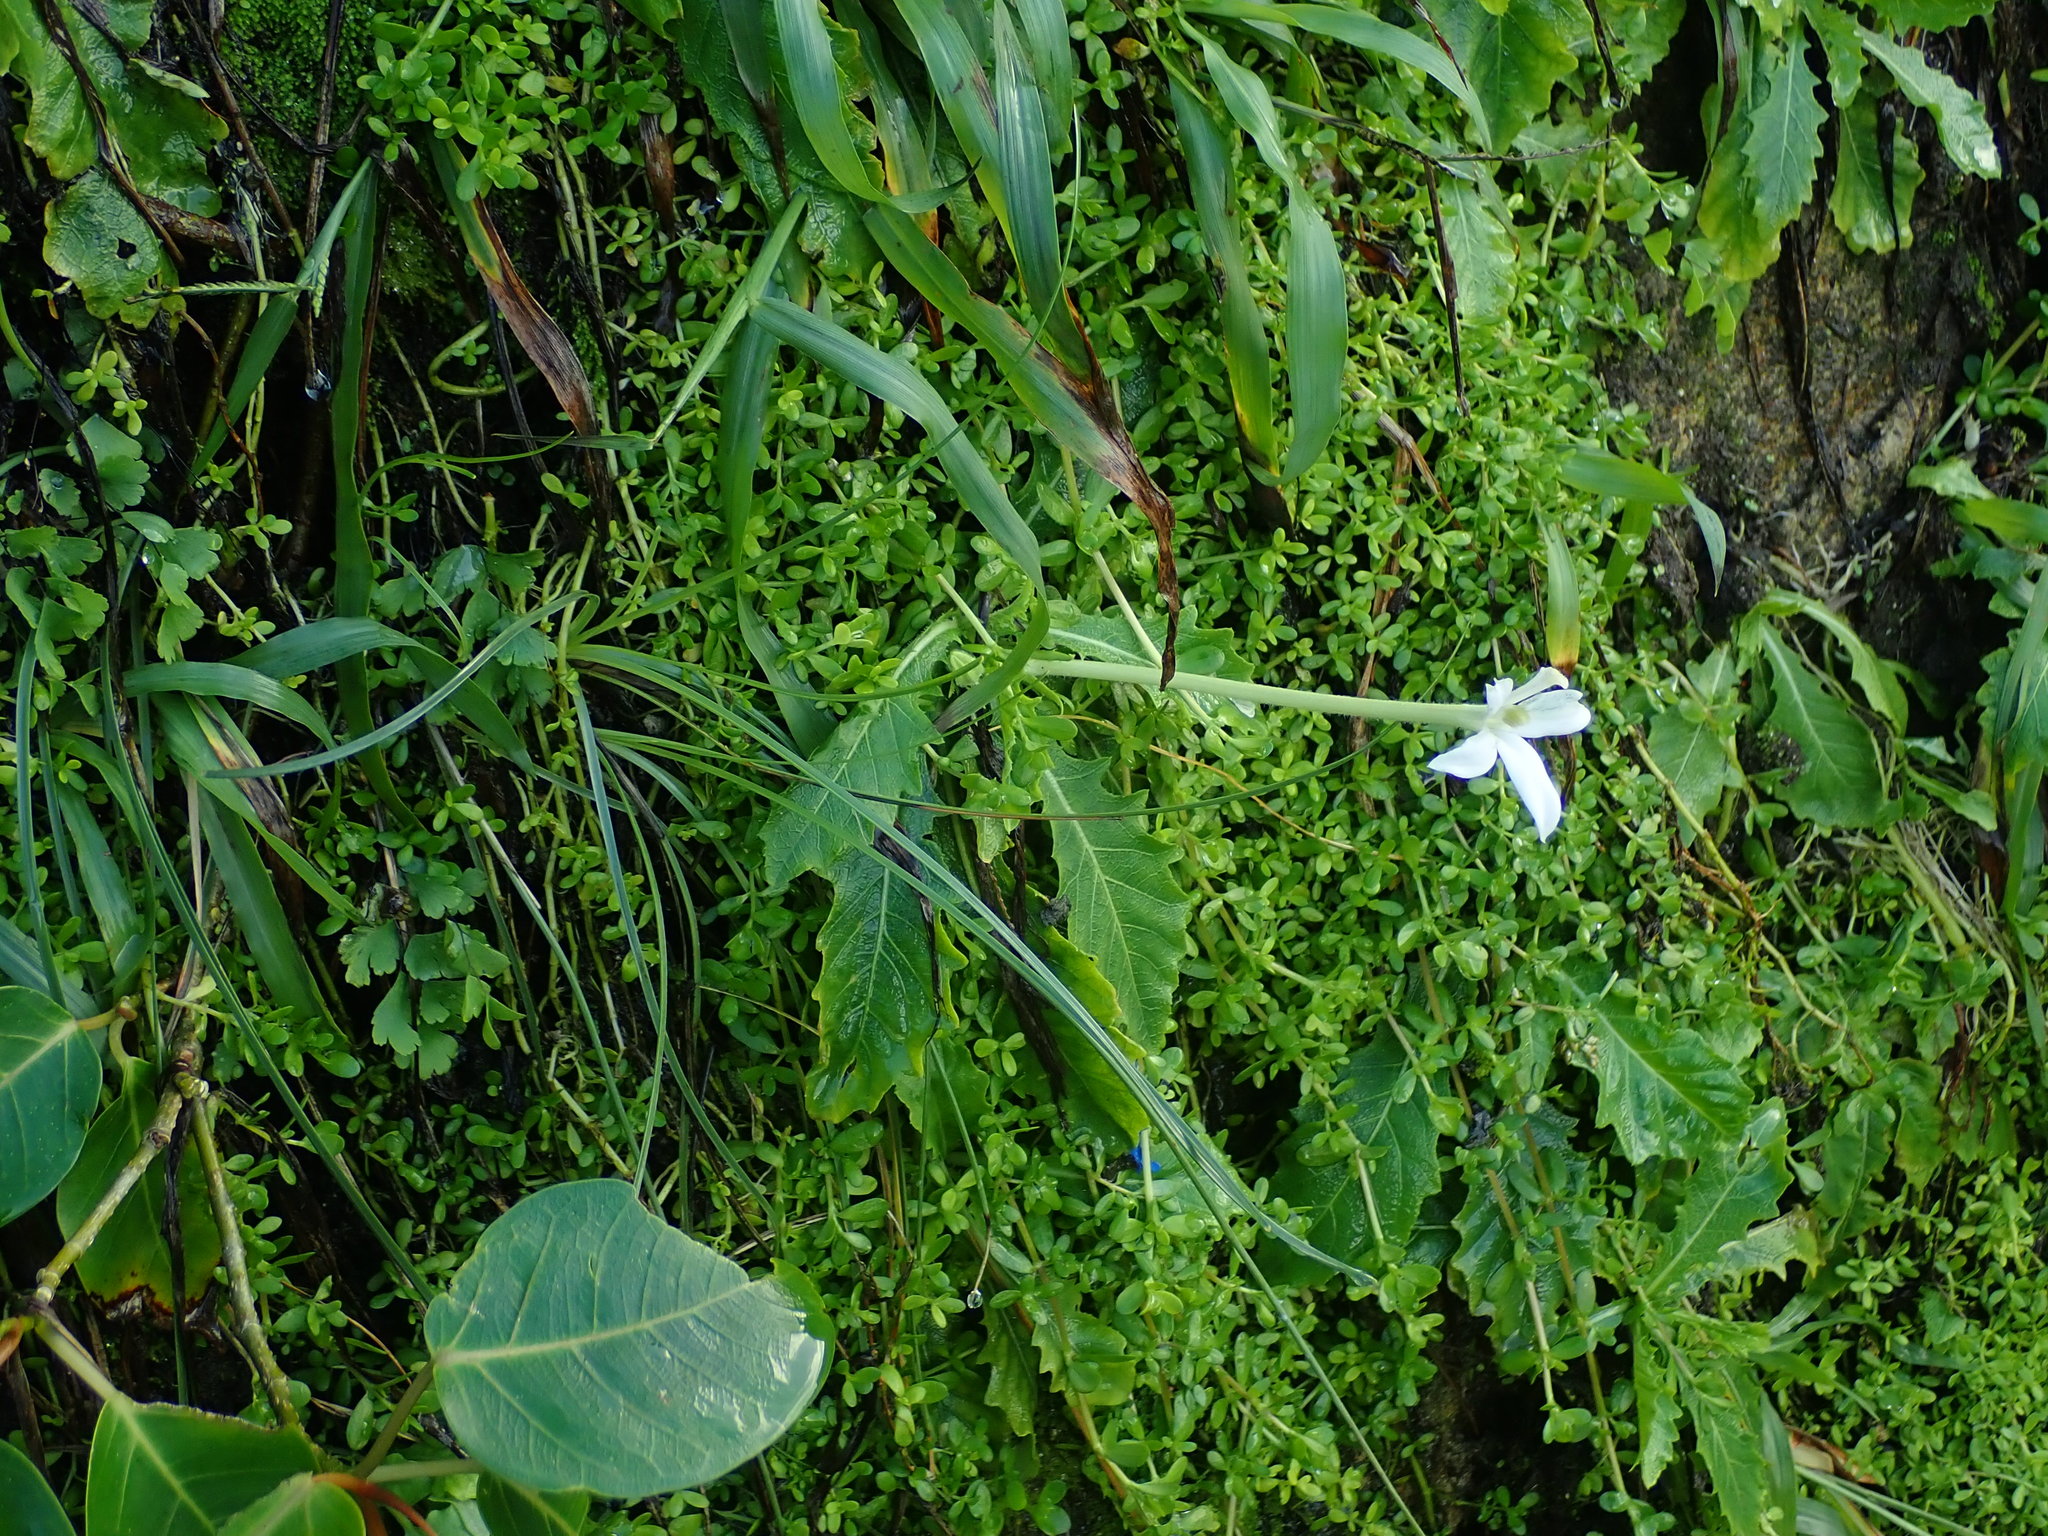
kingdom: Plantae
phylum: Tracheophyta
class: Magnoliopsida
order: Asterales
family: Campanulaceae
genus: Hippobroma
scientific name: Hippobroma longiflora
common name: Madamfate
